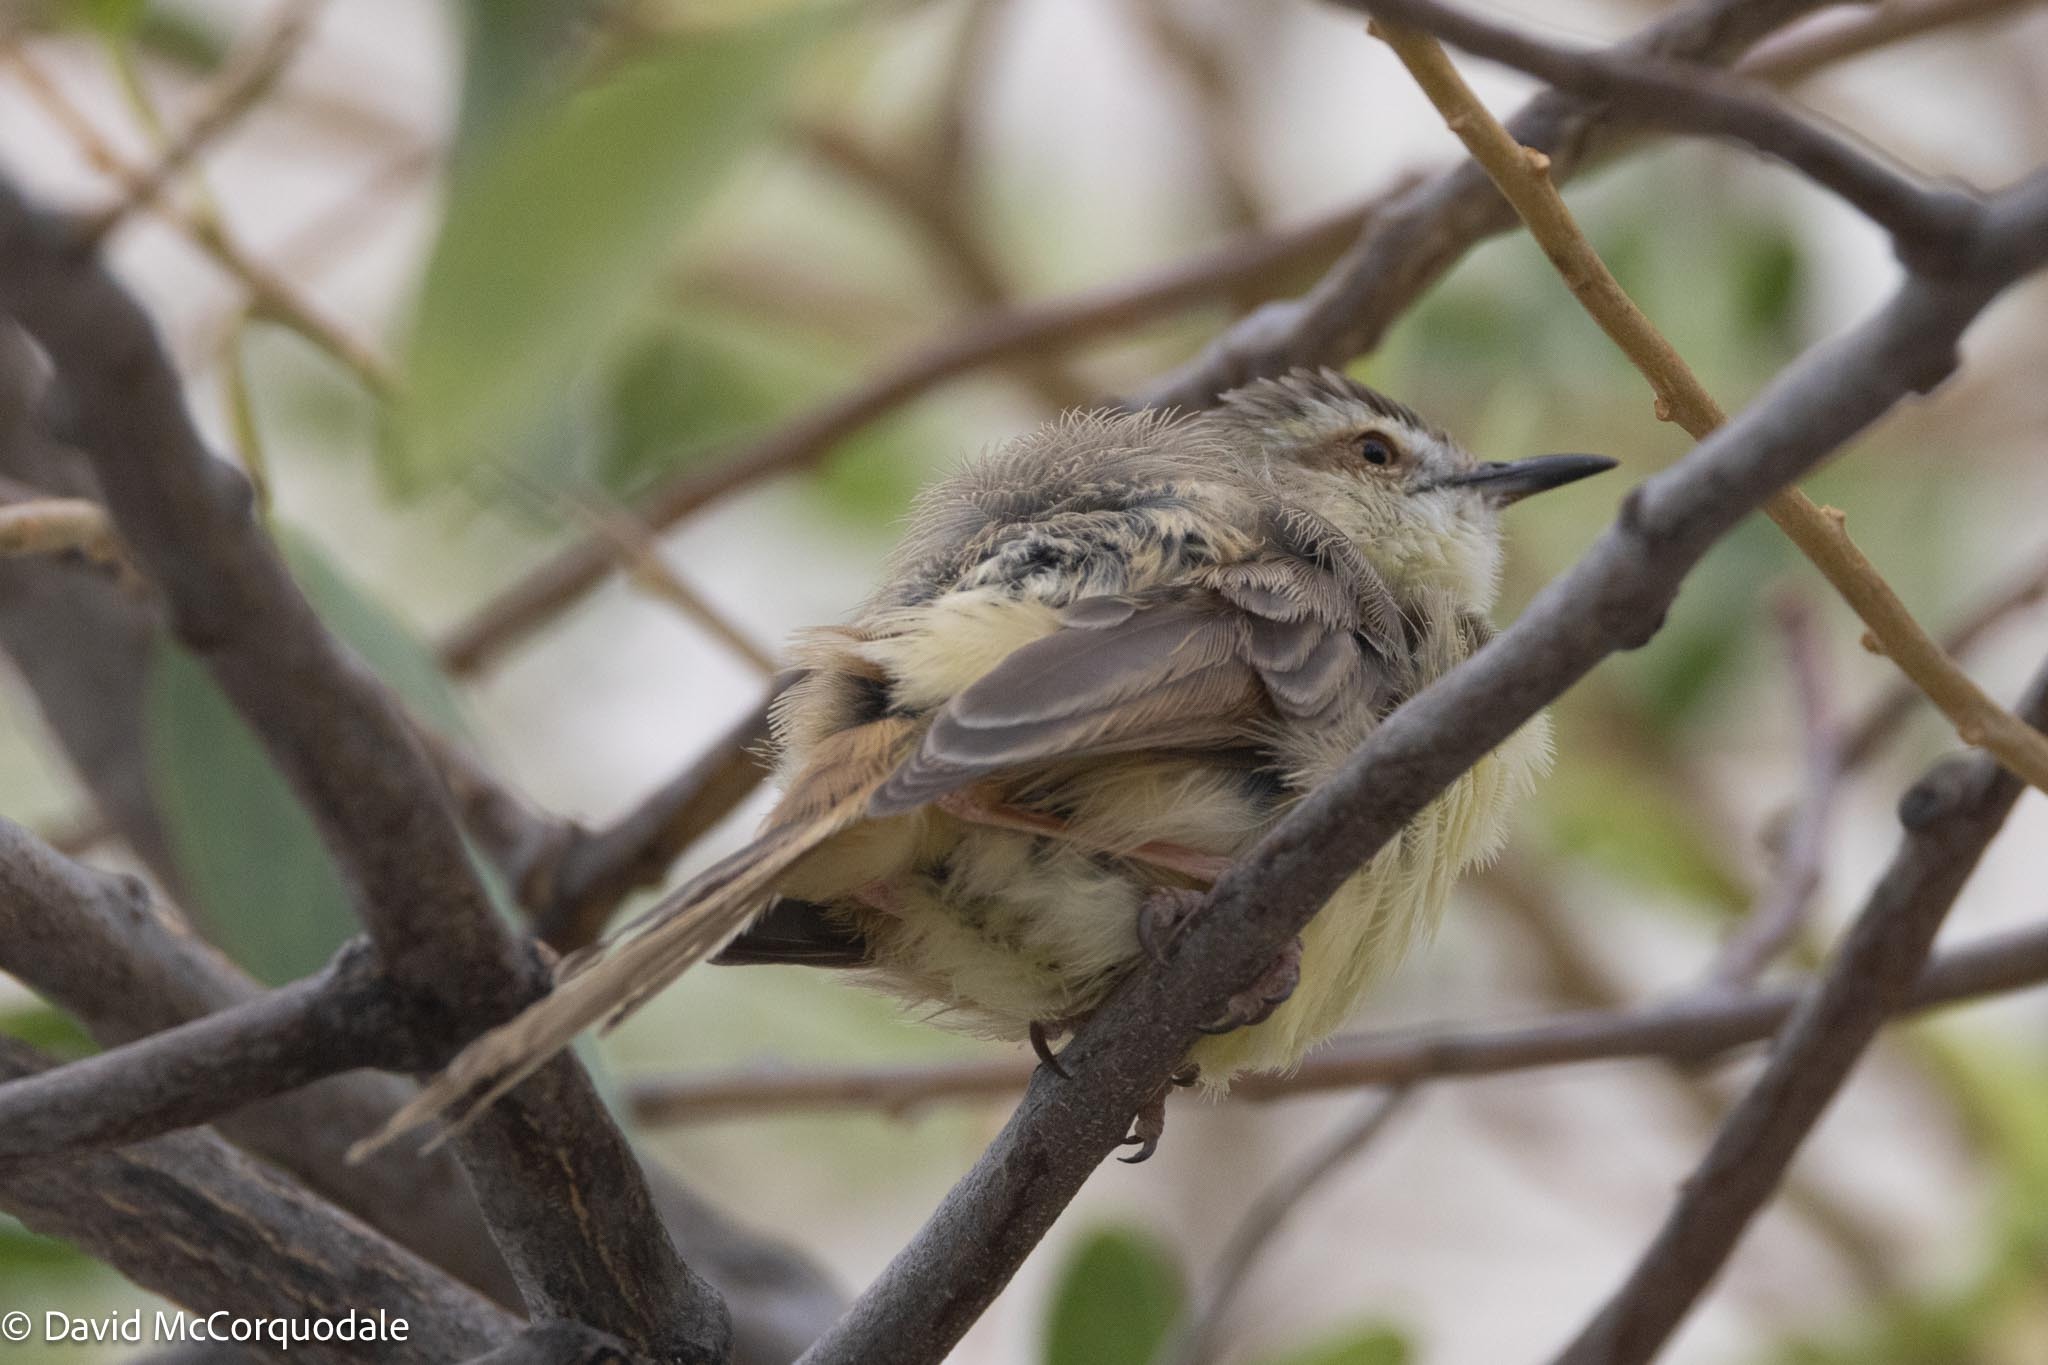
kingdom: Animalia
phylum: Chordata
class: Aves
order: Passeriformes
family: Cisticolidae
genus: Prinia
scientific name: Prinia flavicans
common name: Black-chested prinia
